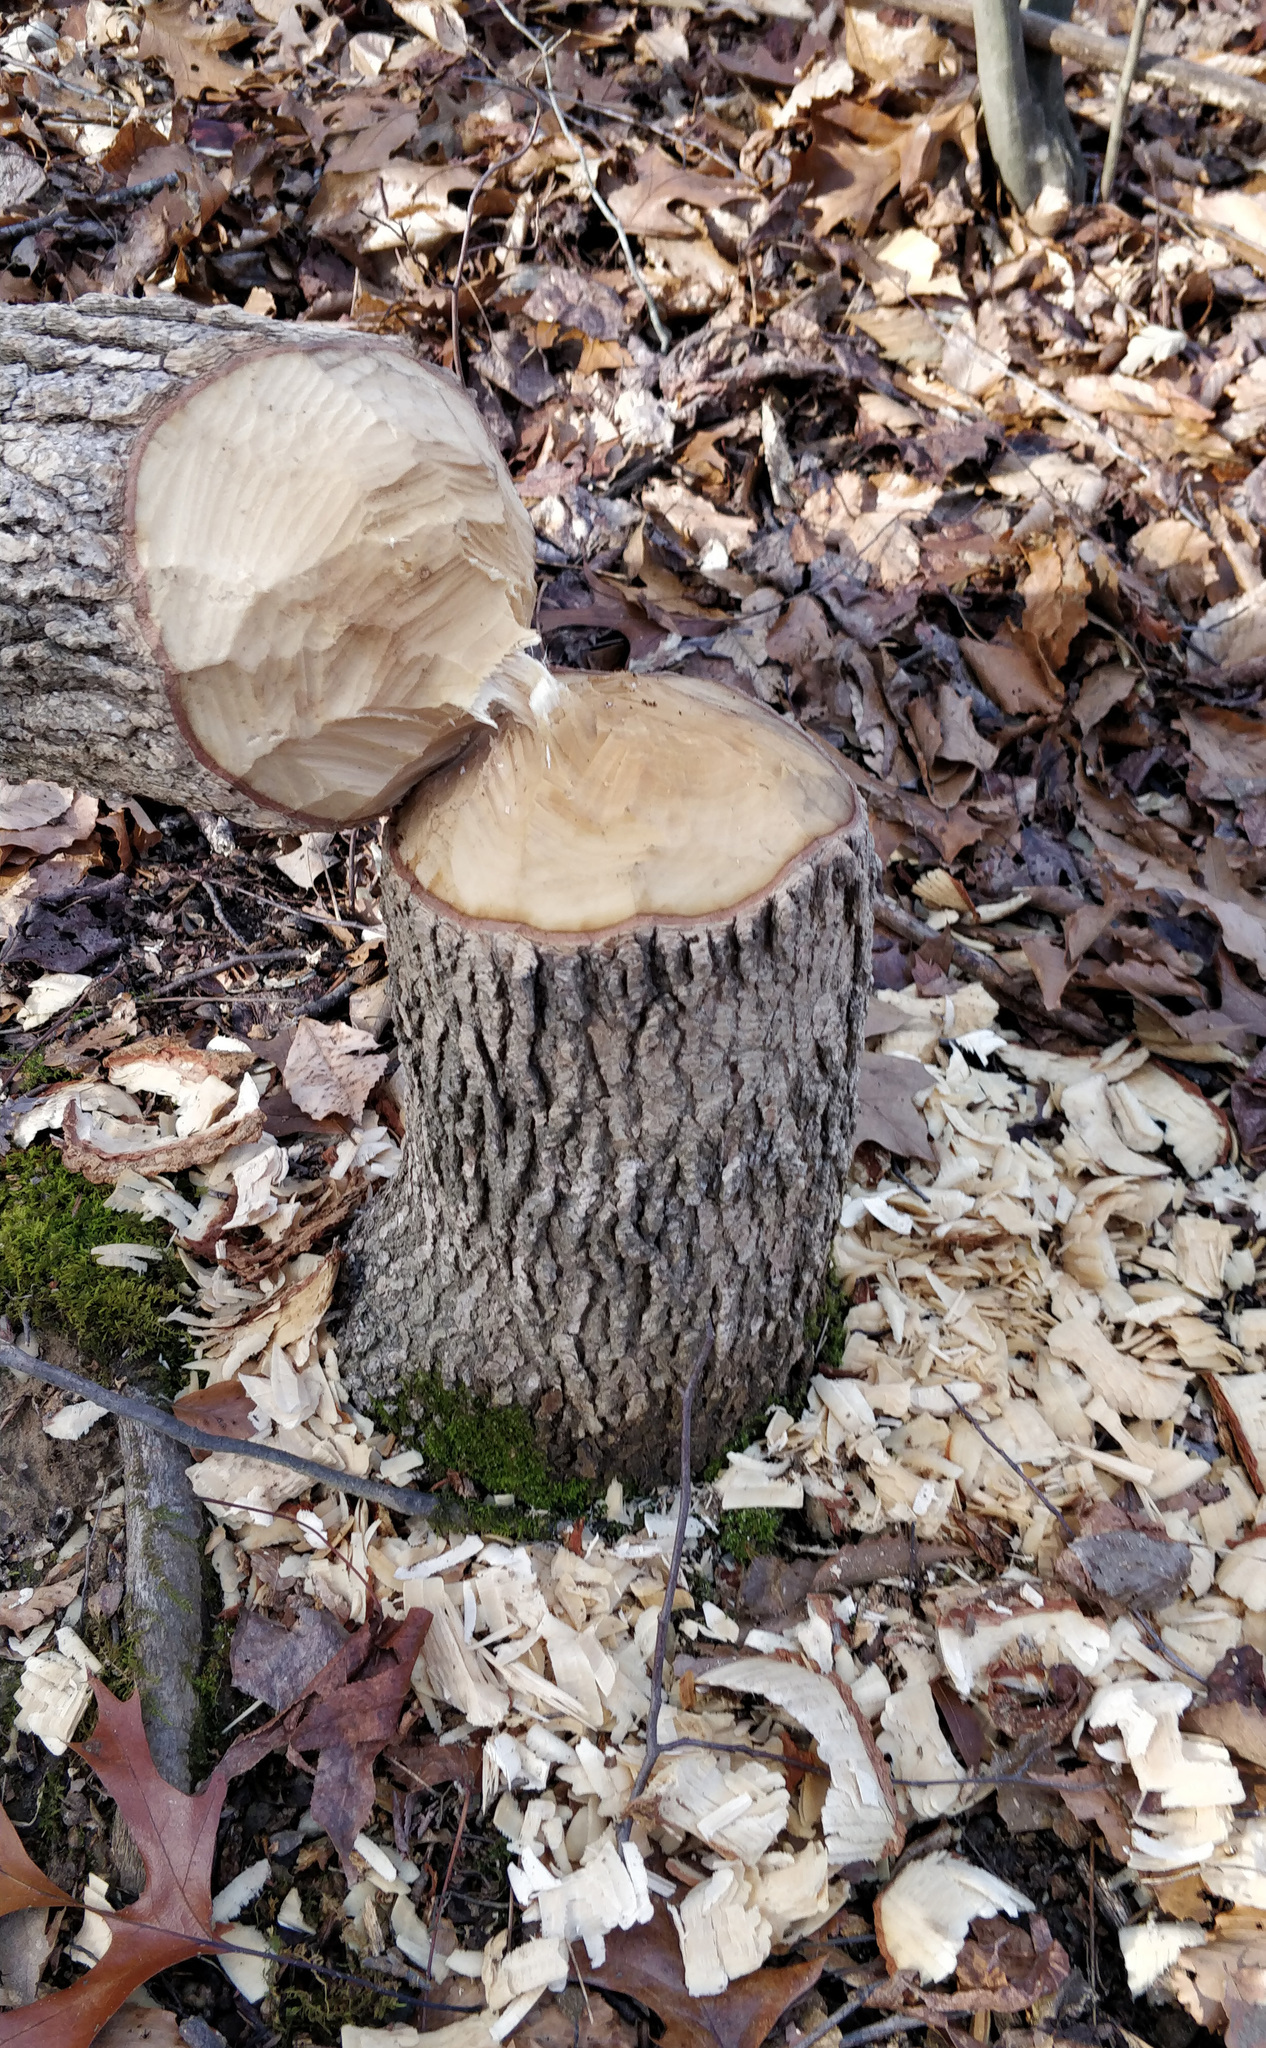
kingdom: Animalia
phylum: Chordata
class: Mammalia
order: Rodentia
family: Castoridae
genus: Castor
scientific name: Castor canadensis
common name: American beaver
